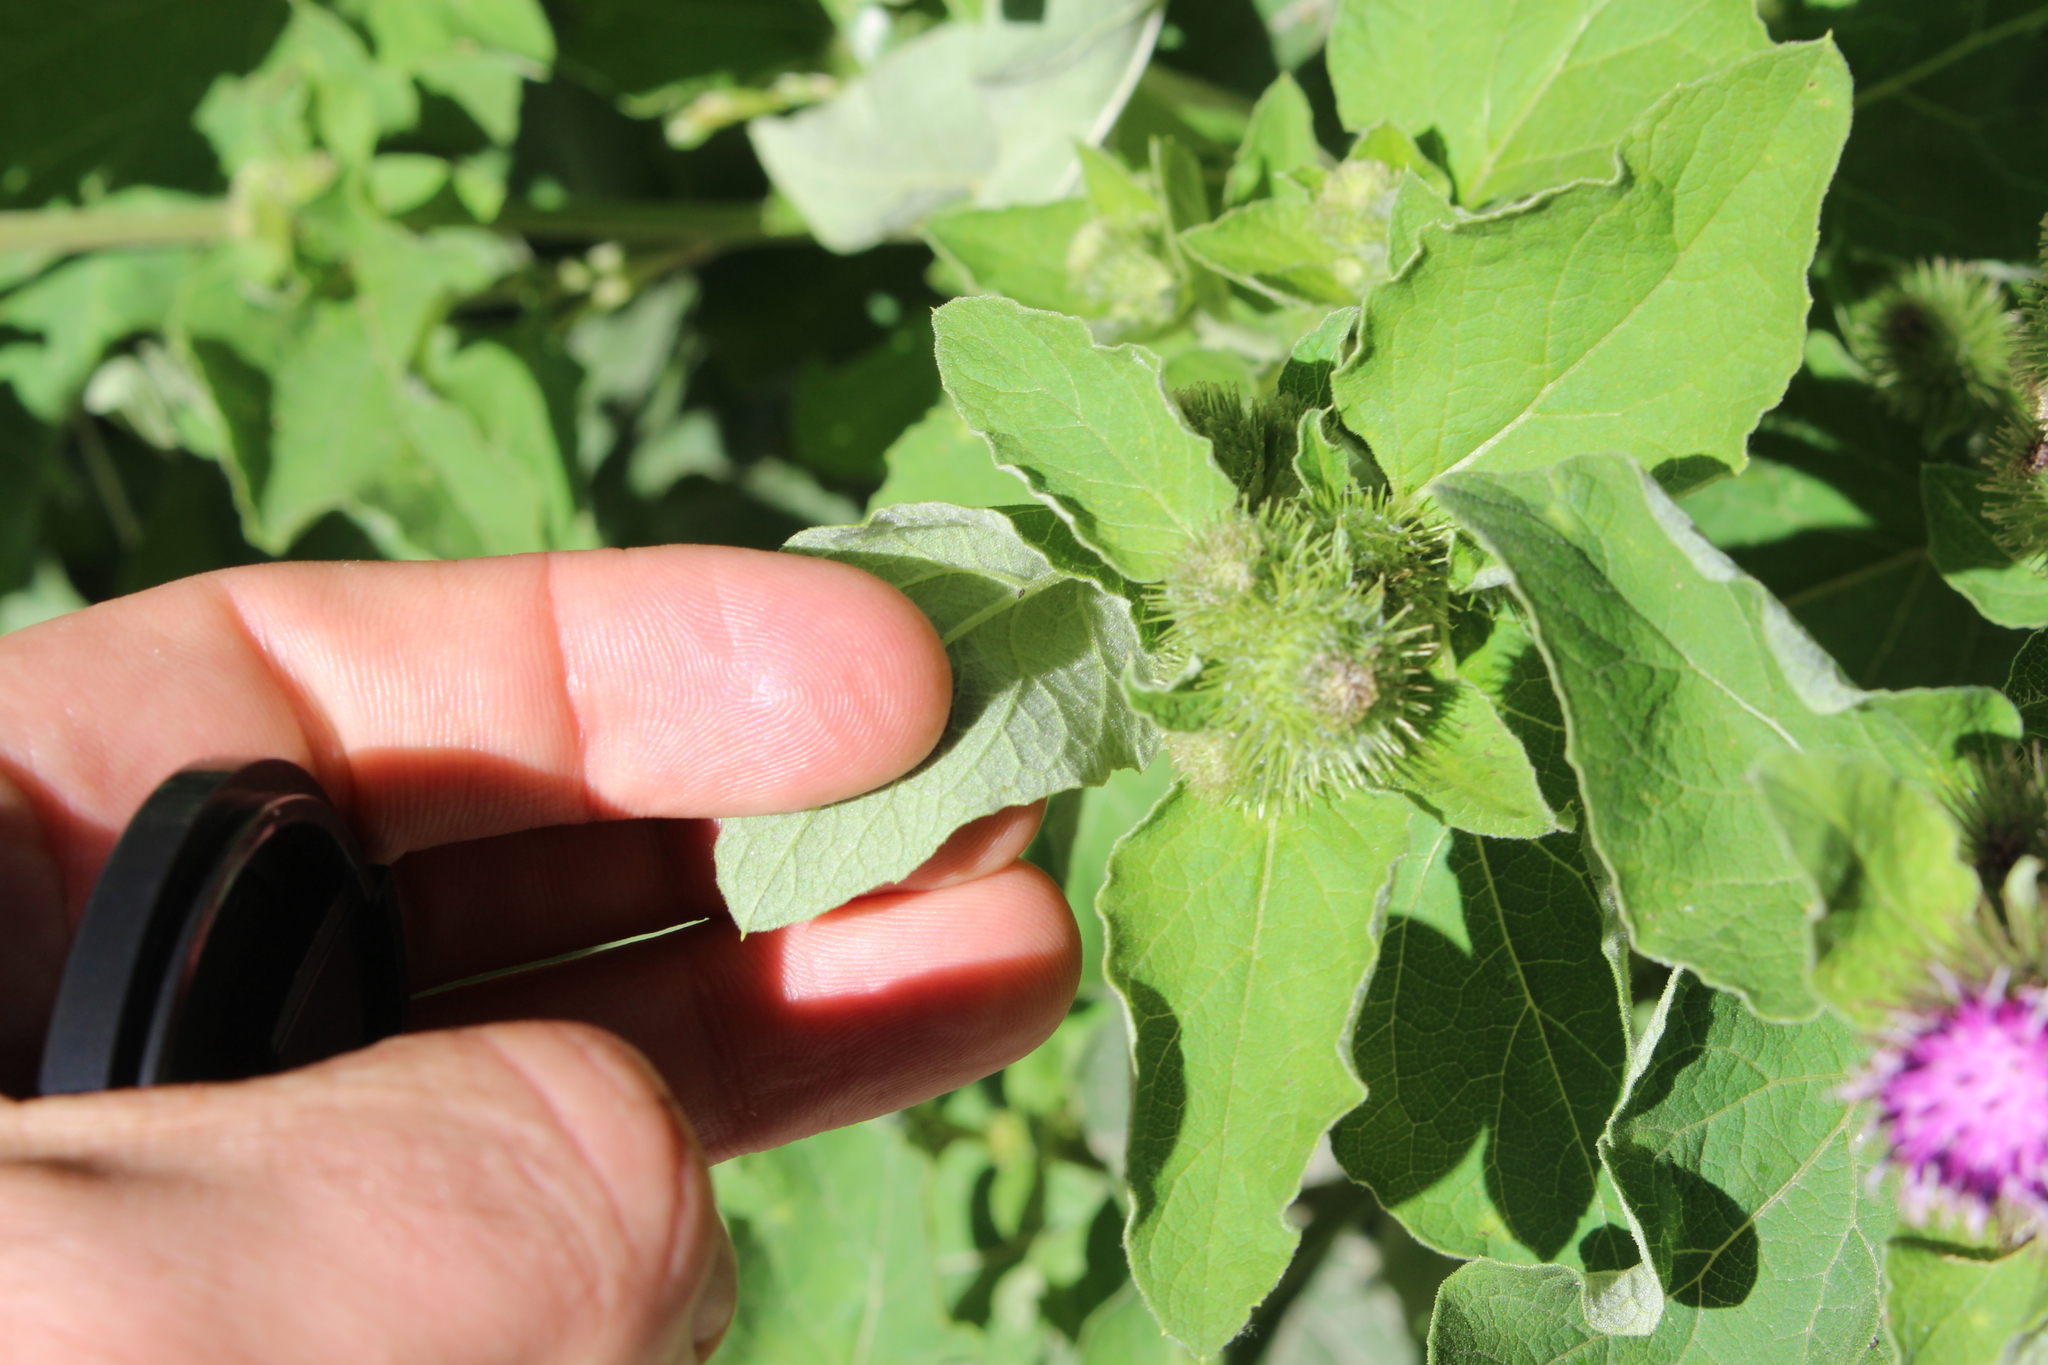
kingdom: Plantae
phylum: Tracheophyta
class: Magnoliopsida
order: Asterales
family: Asteraceae
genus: Arctium
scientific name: Arctium minus
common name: Lesser burdock
